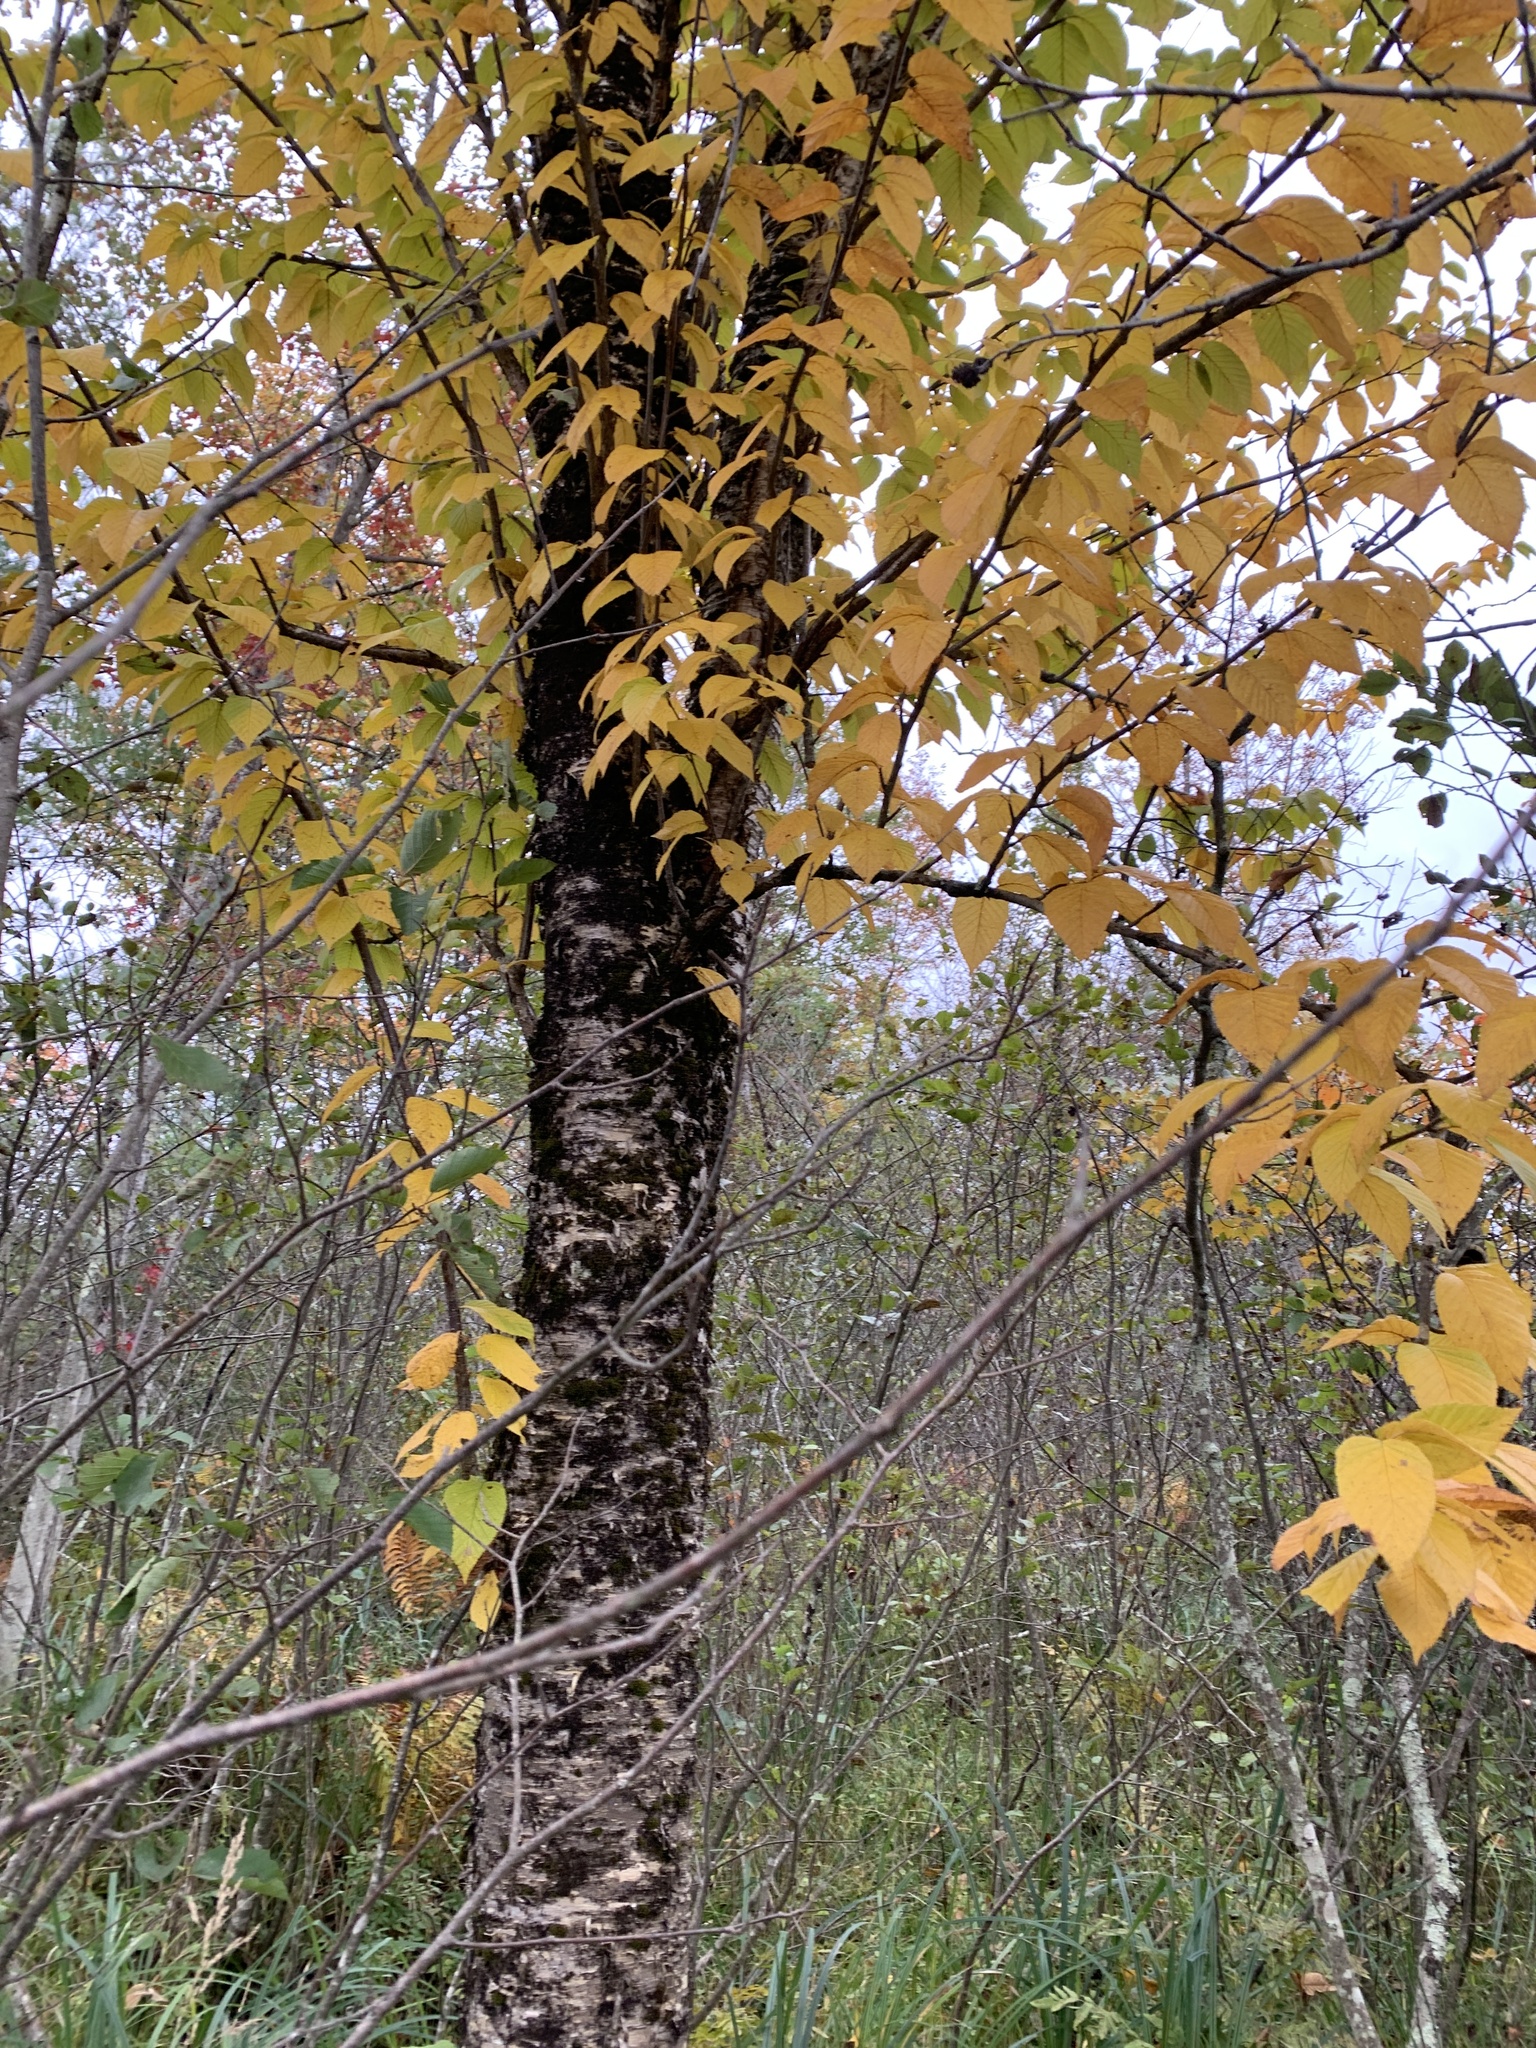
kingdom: Plantae
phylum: Tracheophyta
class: Magnoliopsida
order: Fagales
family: Betulaceae
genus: Betula
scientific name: Betula alleghaniensis
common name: Yellow birch
